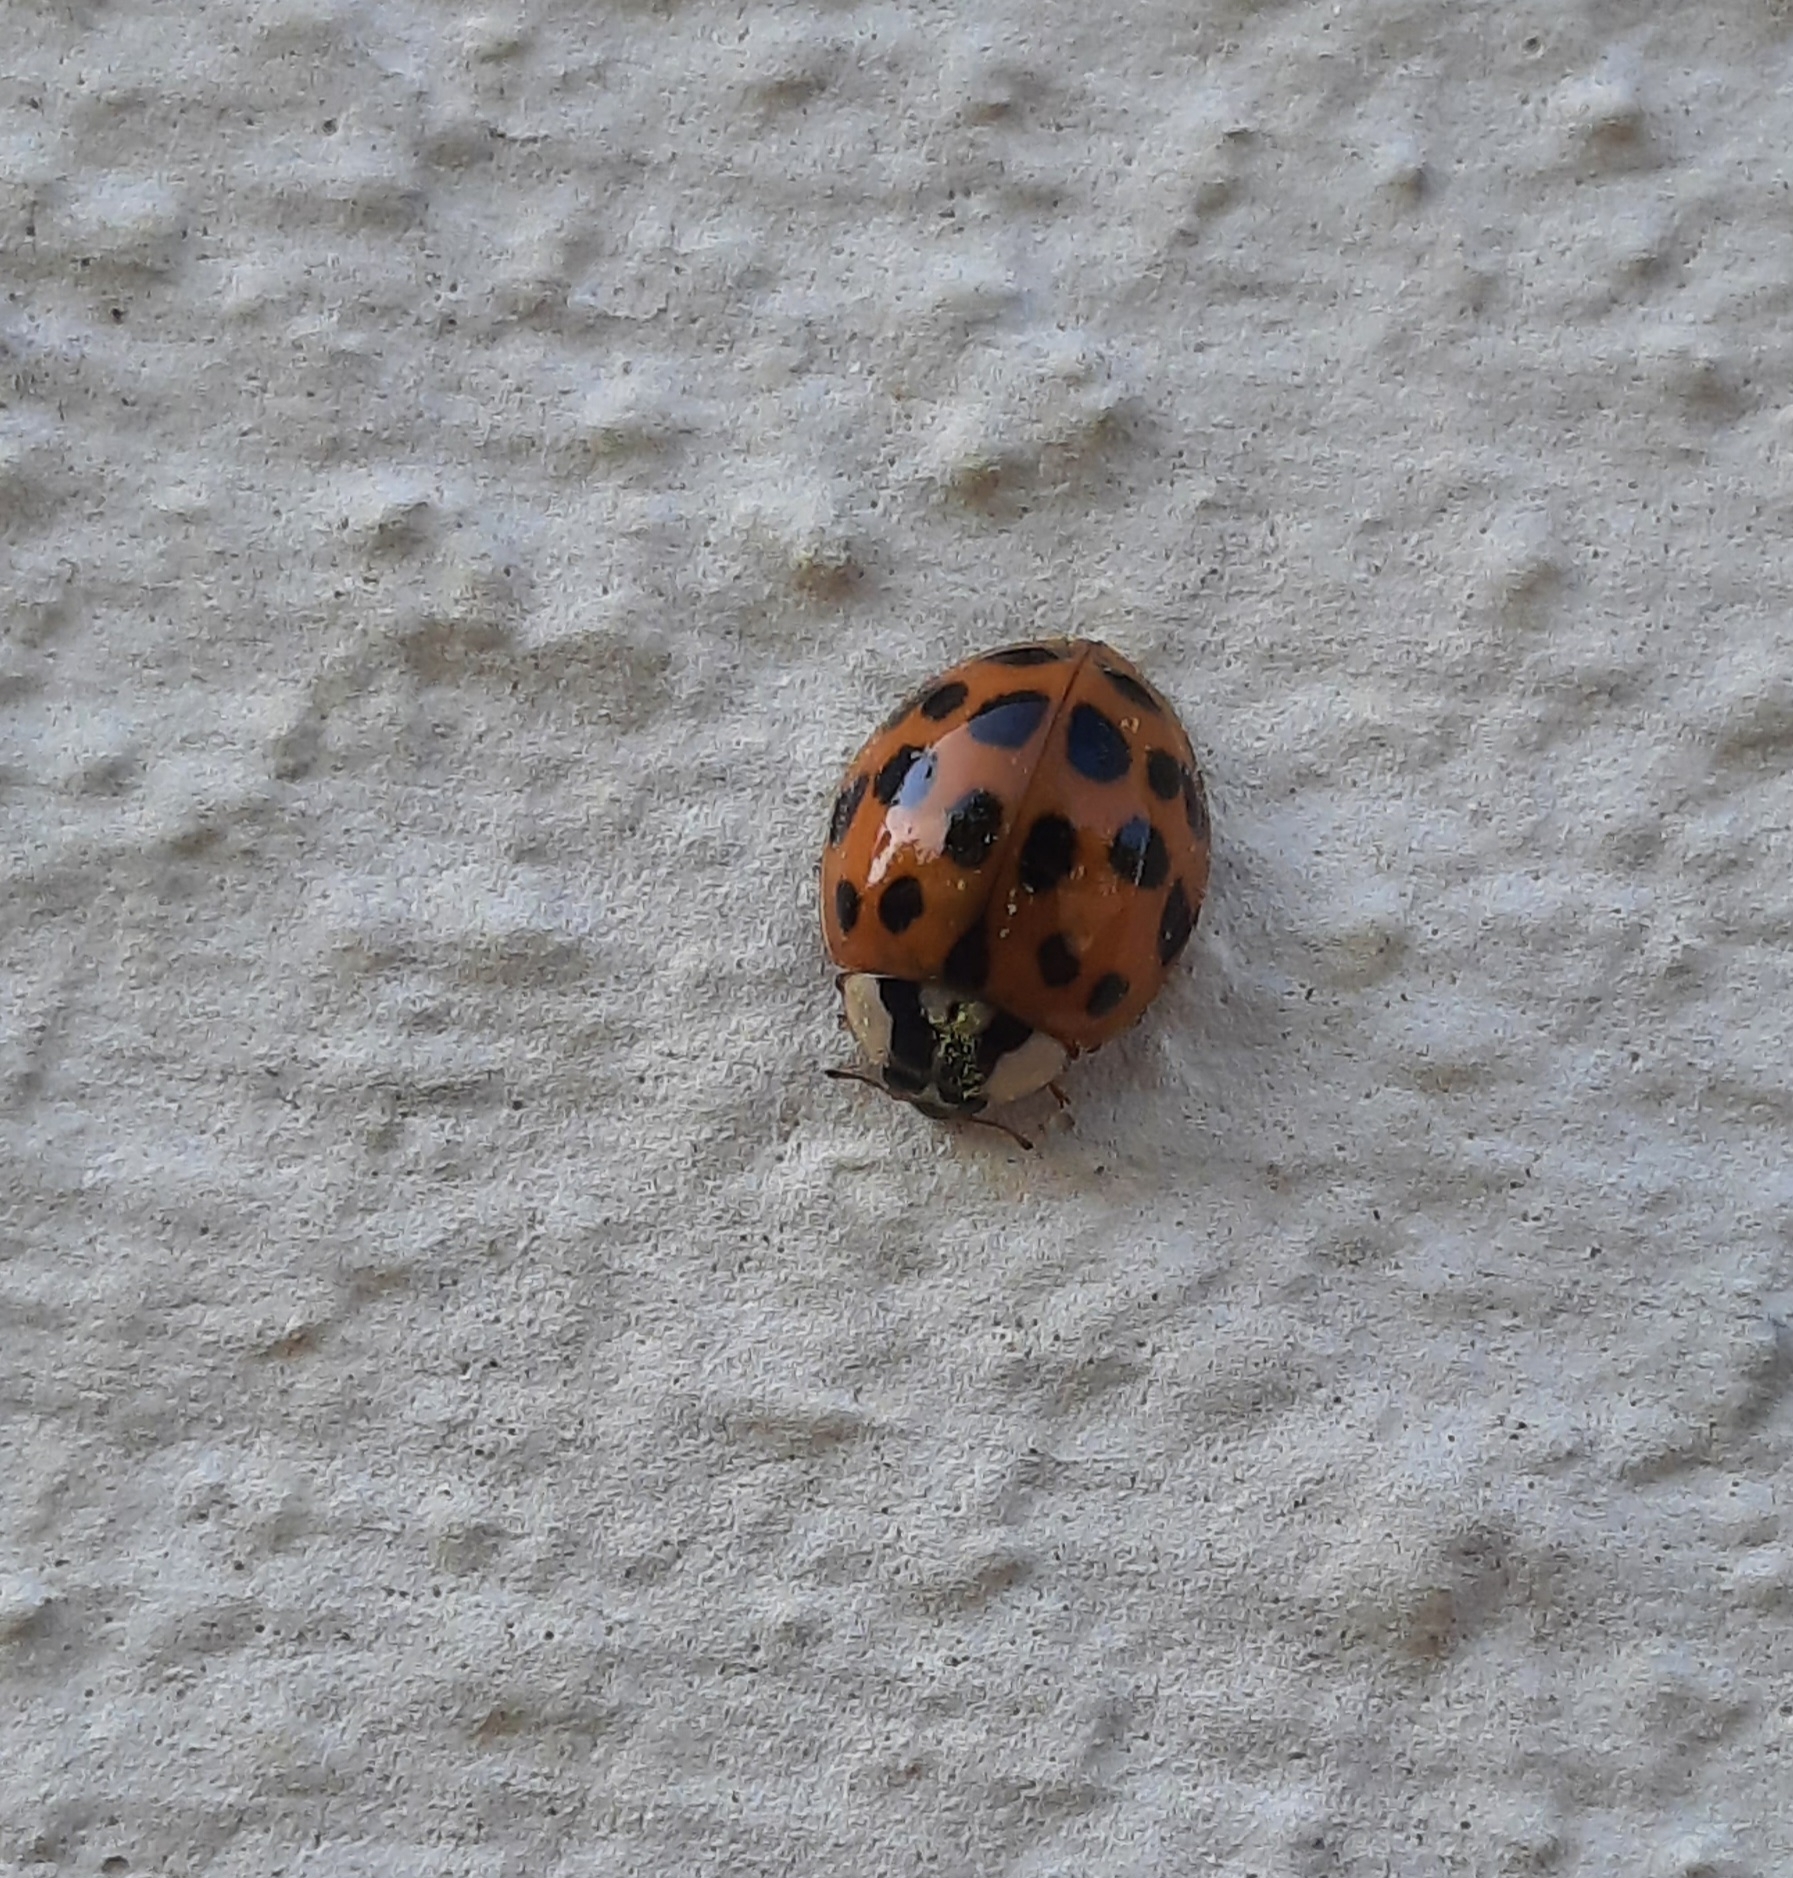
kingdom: Animalia
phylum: Arthropoda
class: Insecta
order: Coleoptera
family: Coccinellidae
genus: Harmonia
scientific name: Harmonia axyridis
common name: Harlequin ladybird
